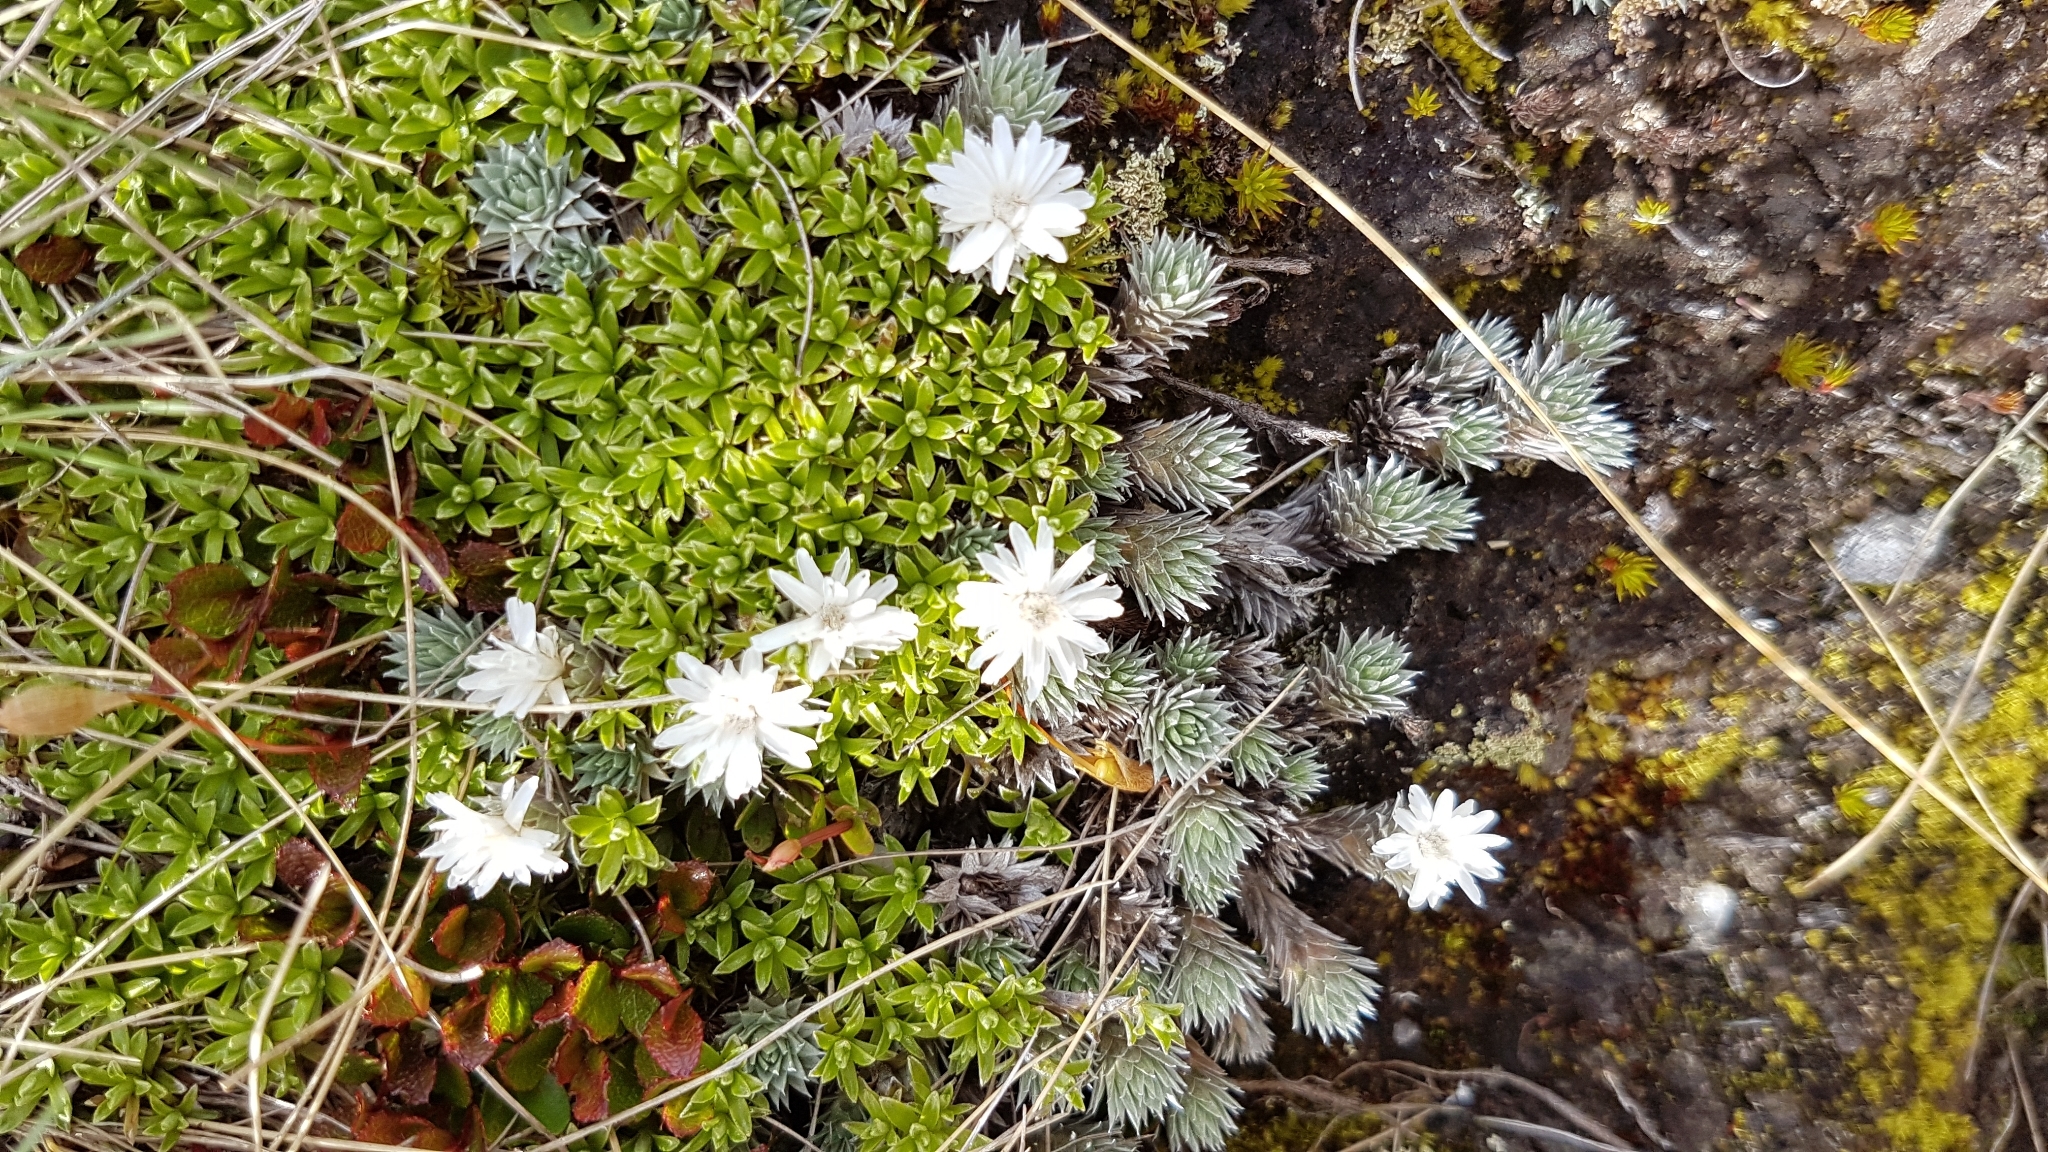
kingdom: Plantae
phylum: Tracheophyta
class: Magnoliopsida
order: Asterales
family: Asteraceae
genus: Raoulia
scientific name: Raoulia grandiflora
